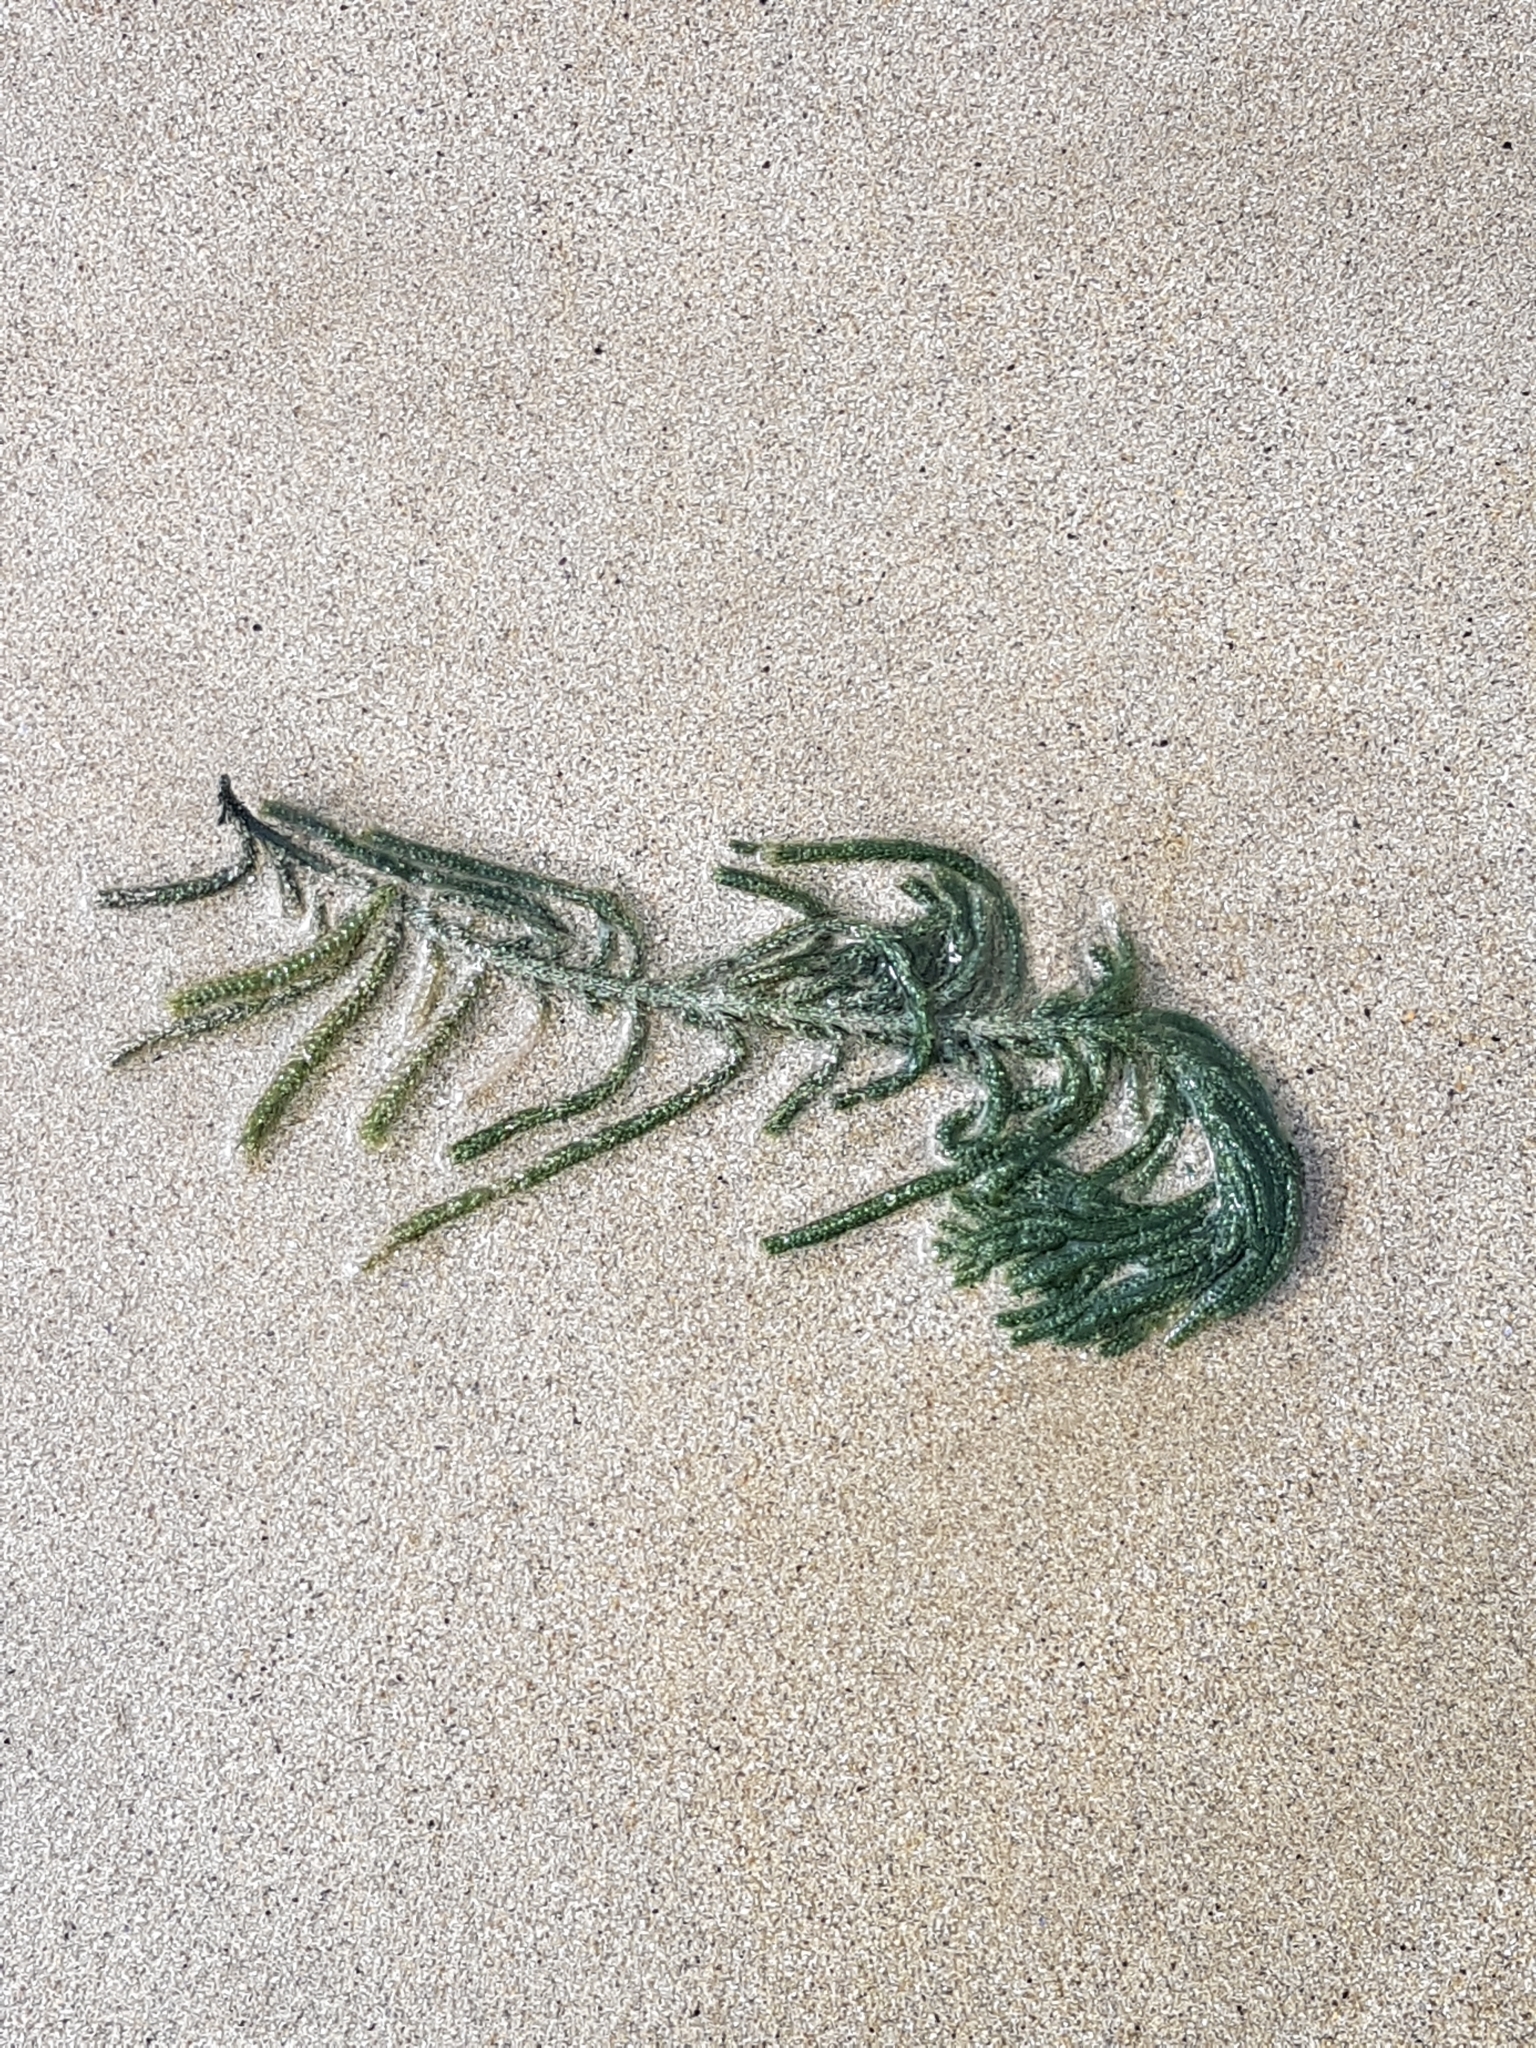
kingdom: Plantae
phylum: Chlorophyta
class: Ulvophyceae
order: Bryopsidales
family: Caulerpaceae
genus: Caulerpa
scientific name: Caulerpa
